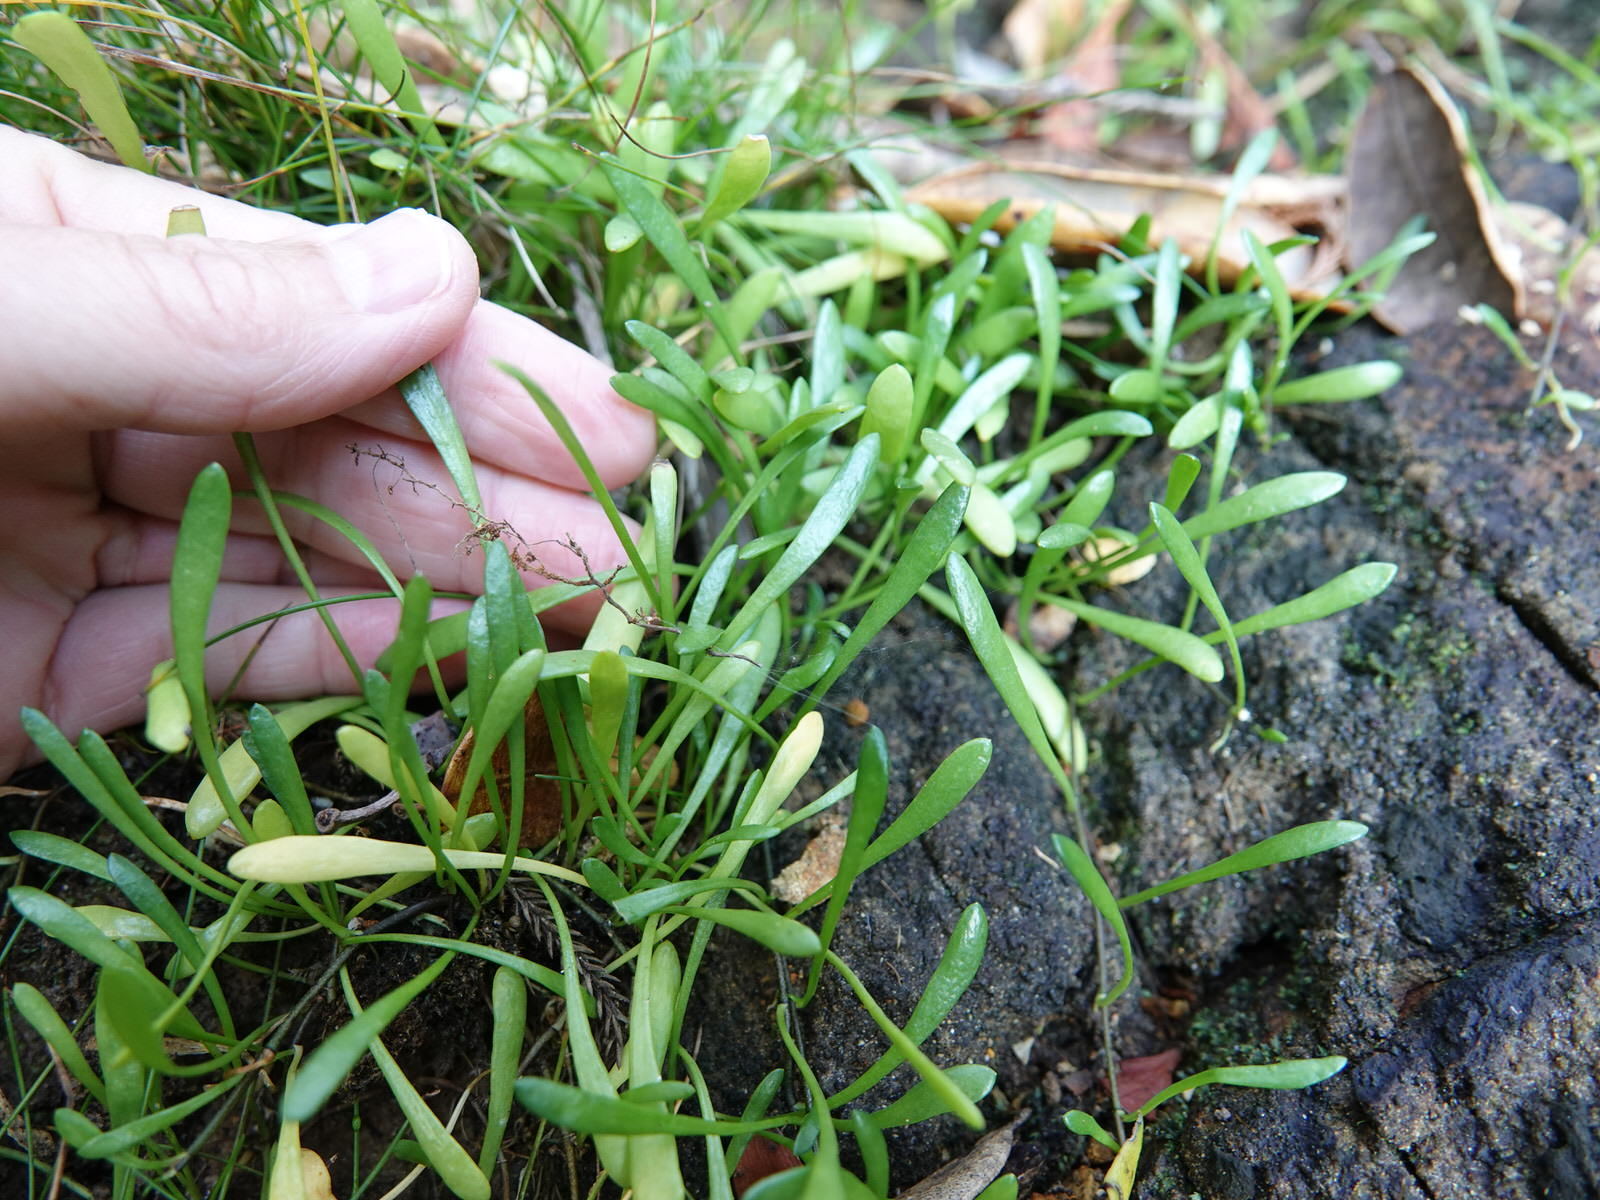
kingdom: Plantae
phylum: Tracheophyta
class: Magnoliopsida
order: Asterales
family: Goodeniaceae
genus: Goodenia
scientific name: Goodenia radicans
